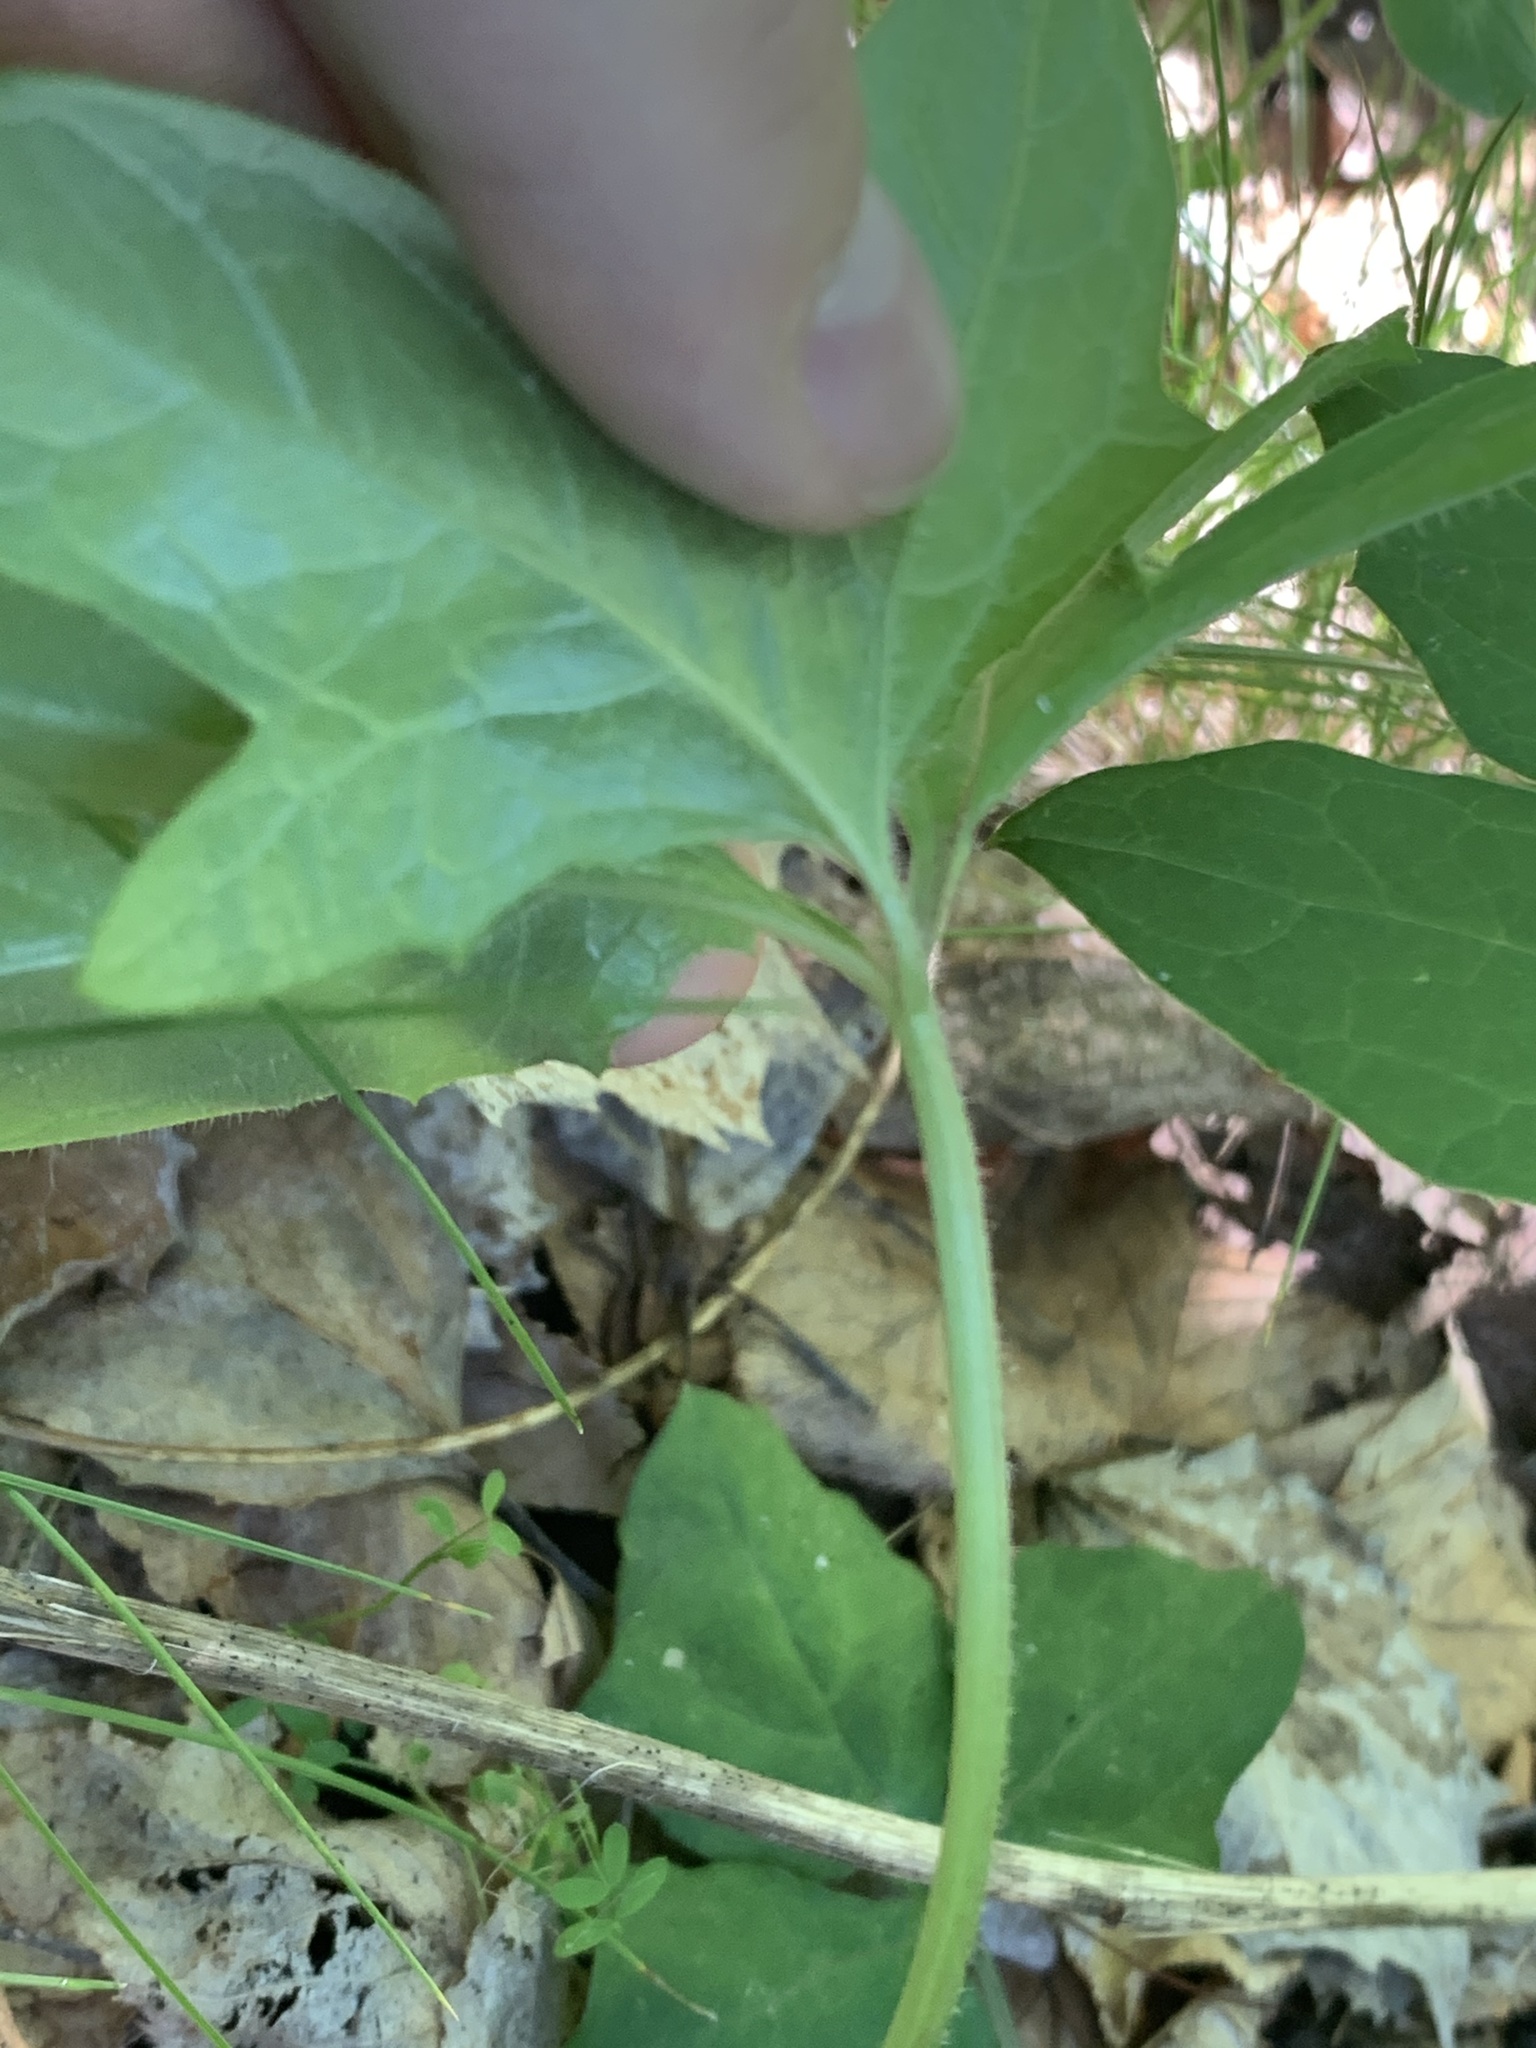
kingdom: Plantae
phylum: Tracheophyta
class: Magnoliopsida
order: Laurales
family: Lauraceae
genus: Sassafras
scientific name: Sassafras albidum
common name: Sassafras
